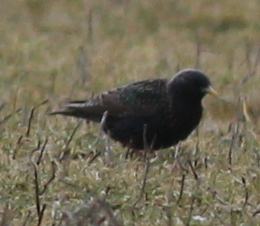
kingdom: Animalia
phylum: Chordata
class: Aves
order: Passeriformes
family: Sturnidae
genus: Sturnus
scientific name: Sturnus vulgaris
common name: Common starling
